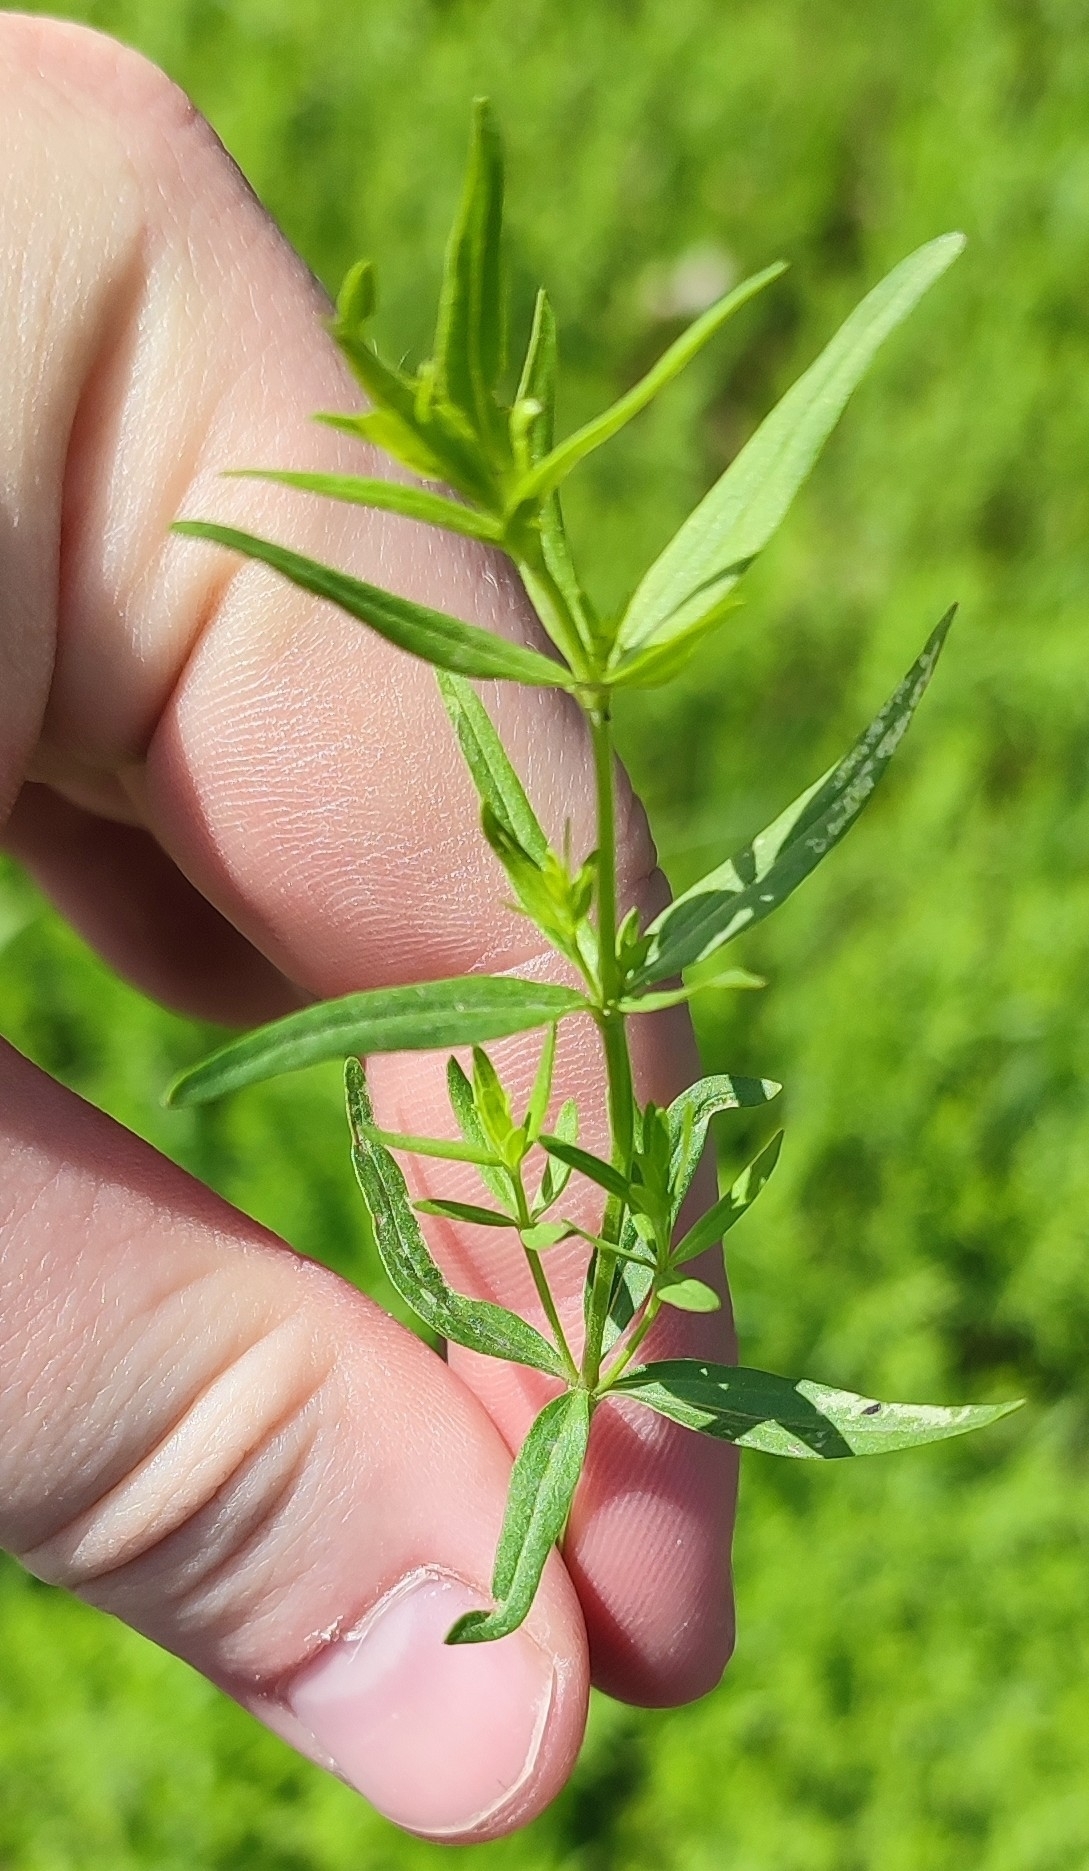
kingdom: Plantae
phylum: Tracheophyta
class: Magnoliopsida
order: Gentianales
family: Rubiaceae
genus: Galium
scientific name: Galium boreale
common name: Northern bedstraw
